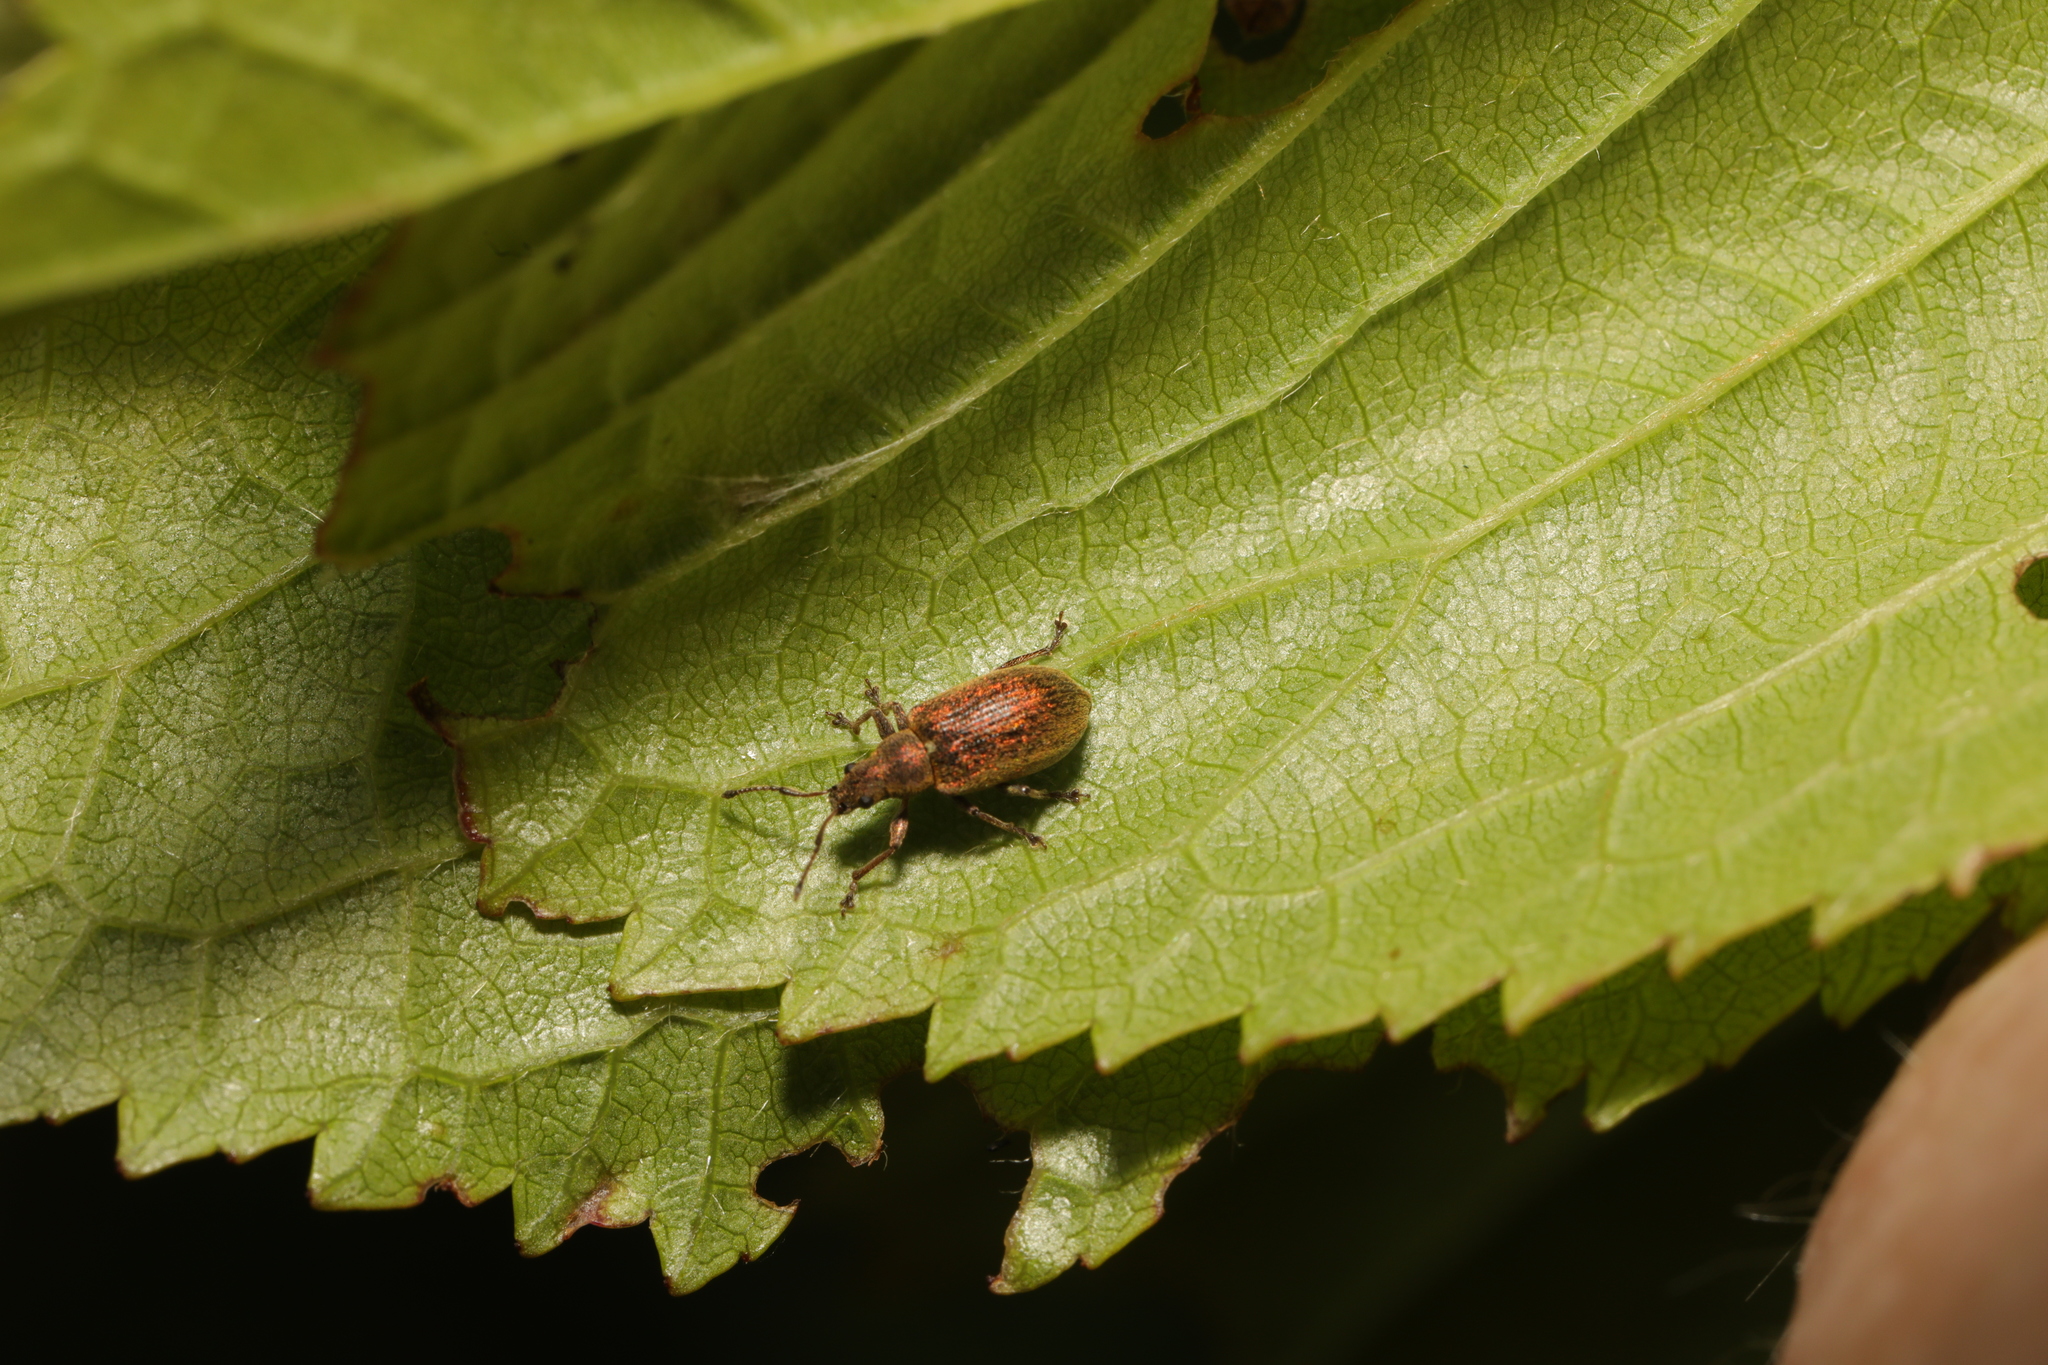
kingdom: Animalia
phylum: Arthropoda
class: Insecta
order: Coleoptera
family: Curculionidae
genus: Phyllobius
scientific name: Phyllobius pyri
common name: Common leaf weevil
